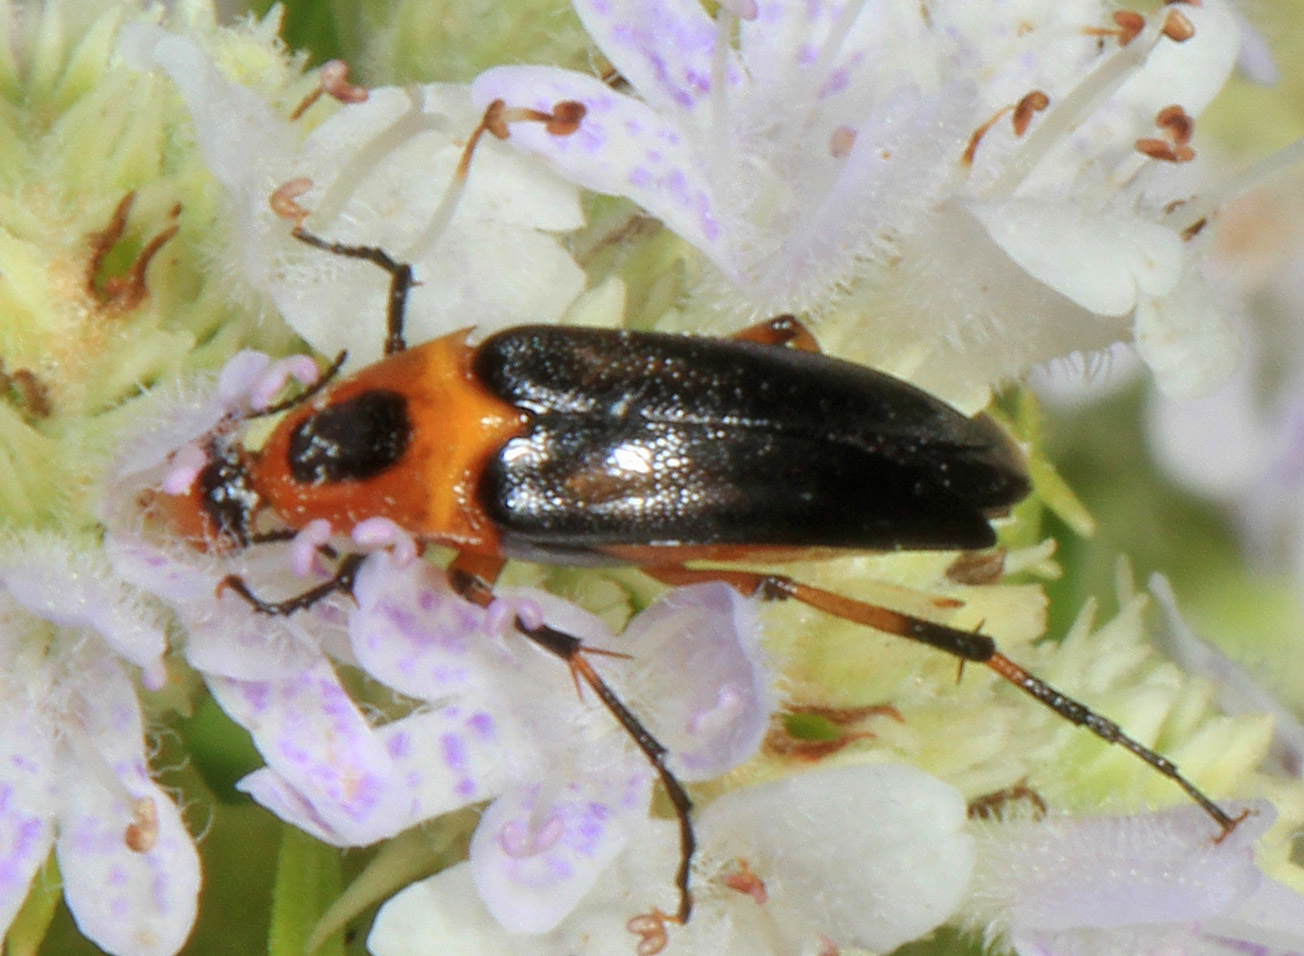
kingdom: Animalia
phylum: Arthropoda
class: Insecta
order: Coleoptera
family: Ripiphoridae
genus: Macrosiagon
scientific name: Macrosiagon limbatum
